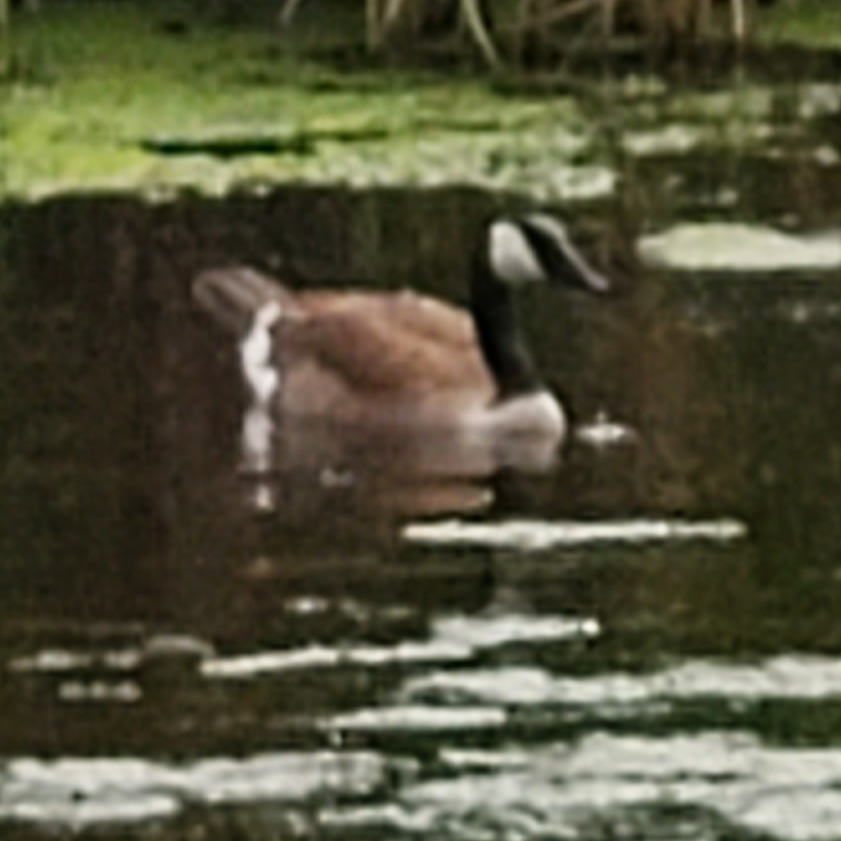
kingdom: Animalia
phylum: Chordata
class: Aves
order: Anseriformes
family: Anatidae
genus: Branta
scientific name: Branta canadensis
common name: Canada goose
